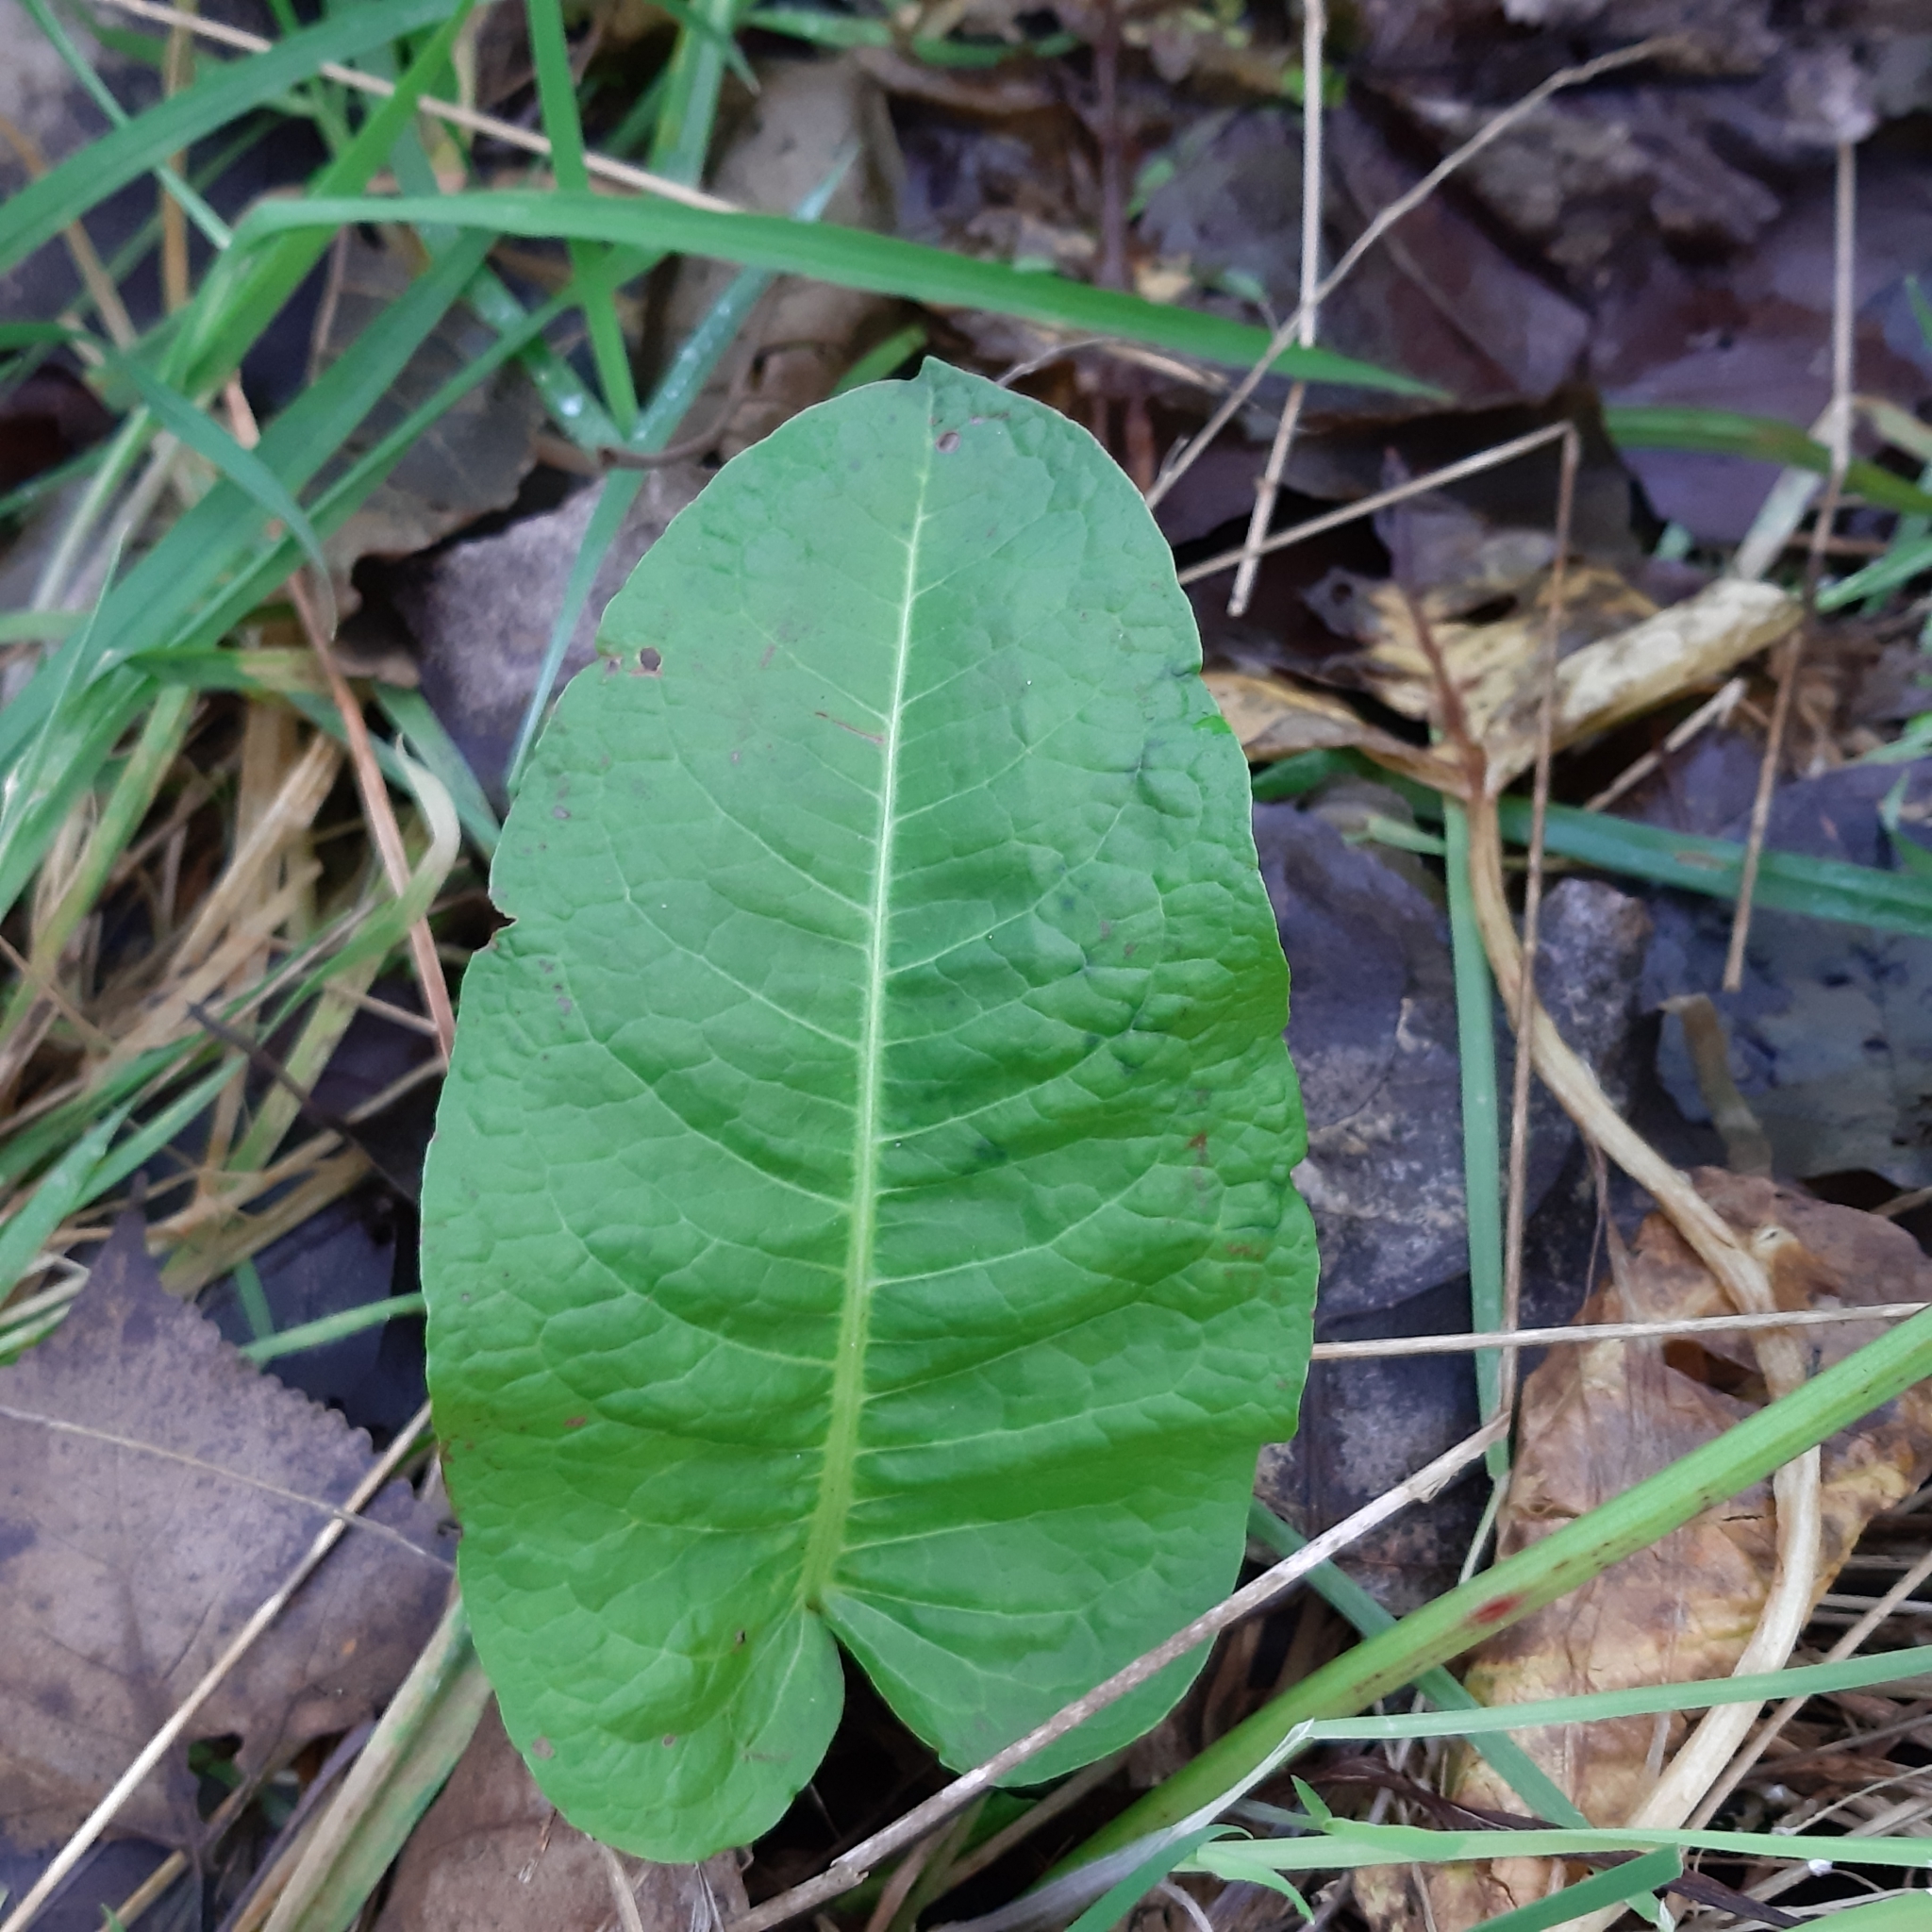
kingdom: Plantae
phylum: Tracheophyta
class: Magnoliopsida
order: Caryophyllales
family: Polygonaceae
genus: Rumex
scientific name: Rumex obtusifolius
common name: Bitter dock
